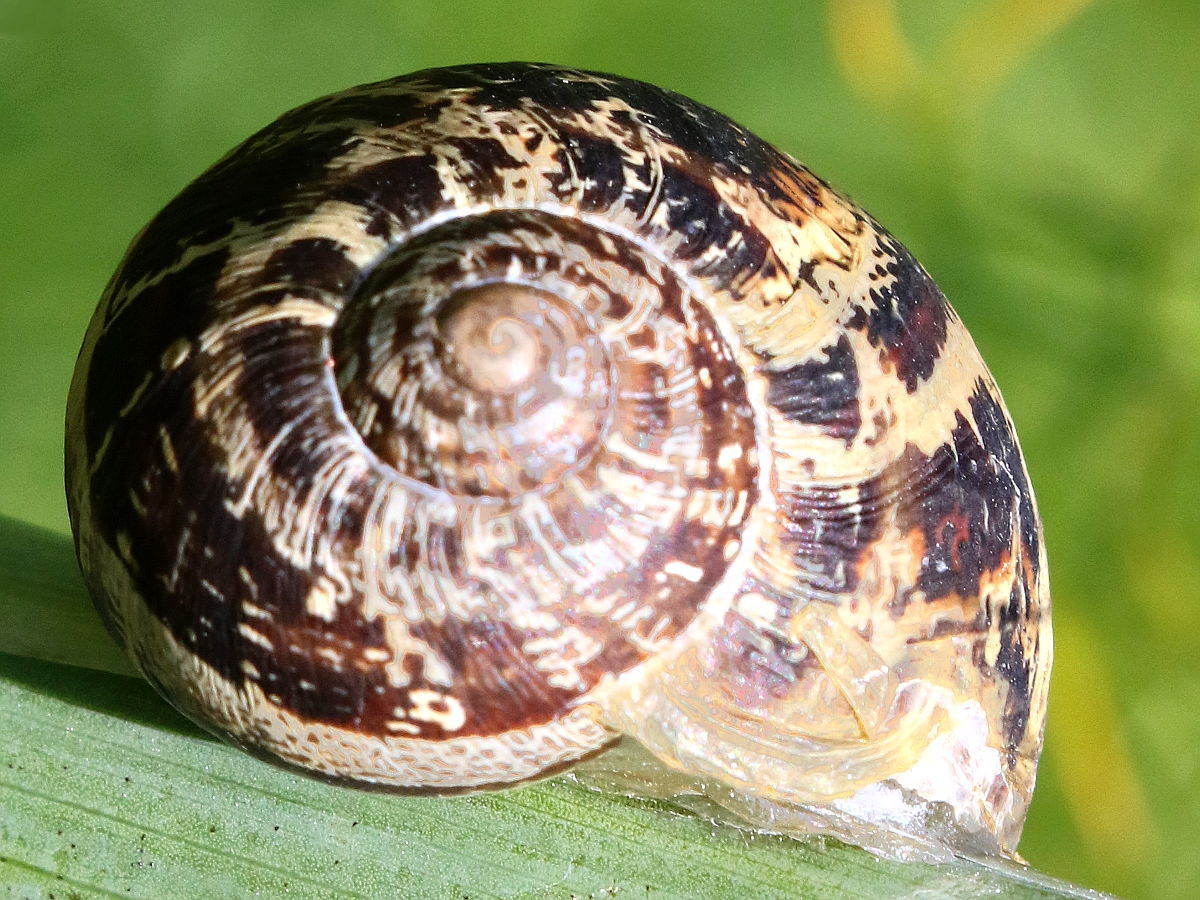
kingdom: Animalia
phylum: Mollusca
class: Gastropoda
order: Stylommatophora
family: Helicidae
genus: Cornu
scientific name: Cornu aspersum
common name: Brown garden snail
